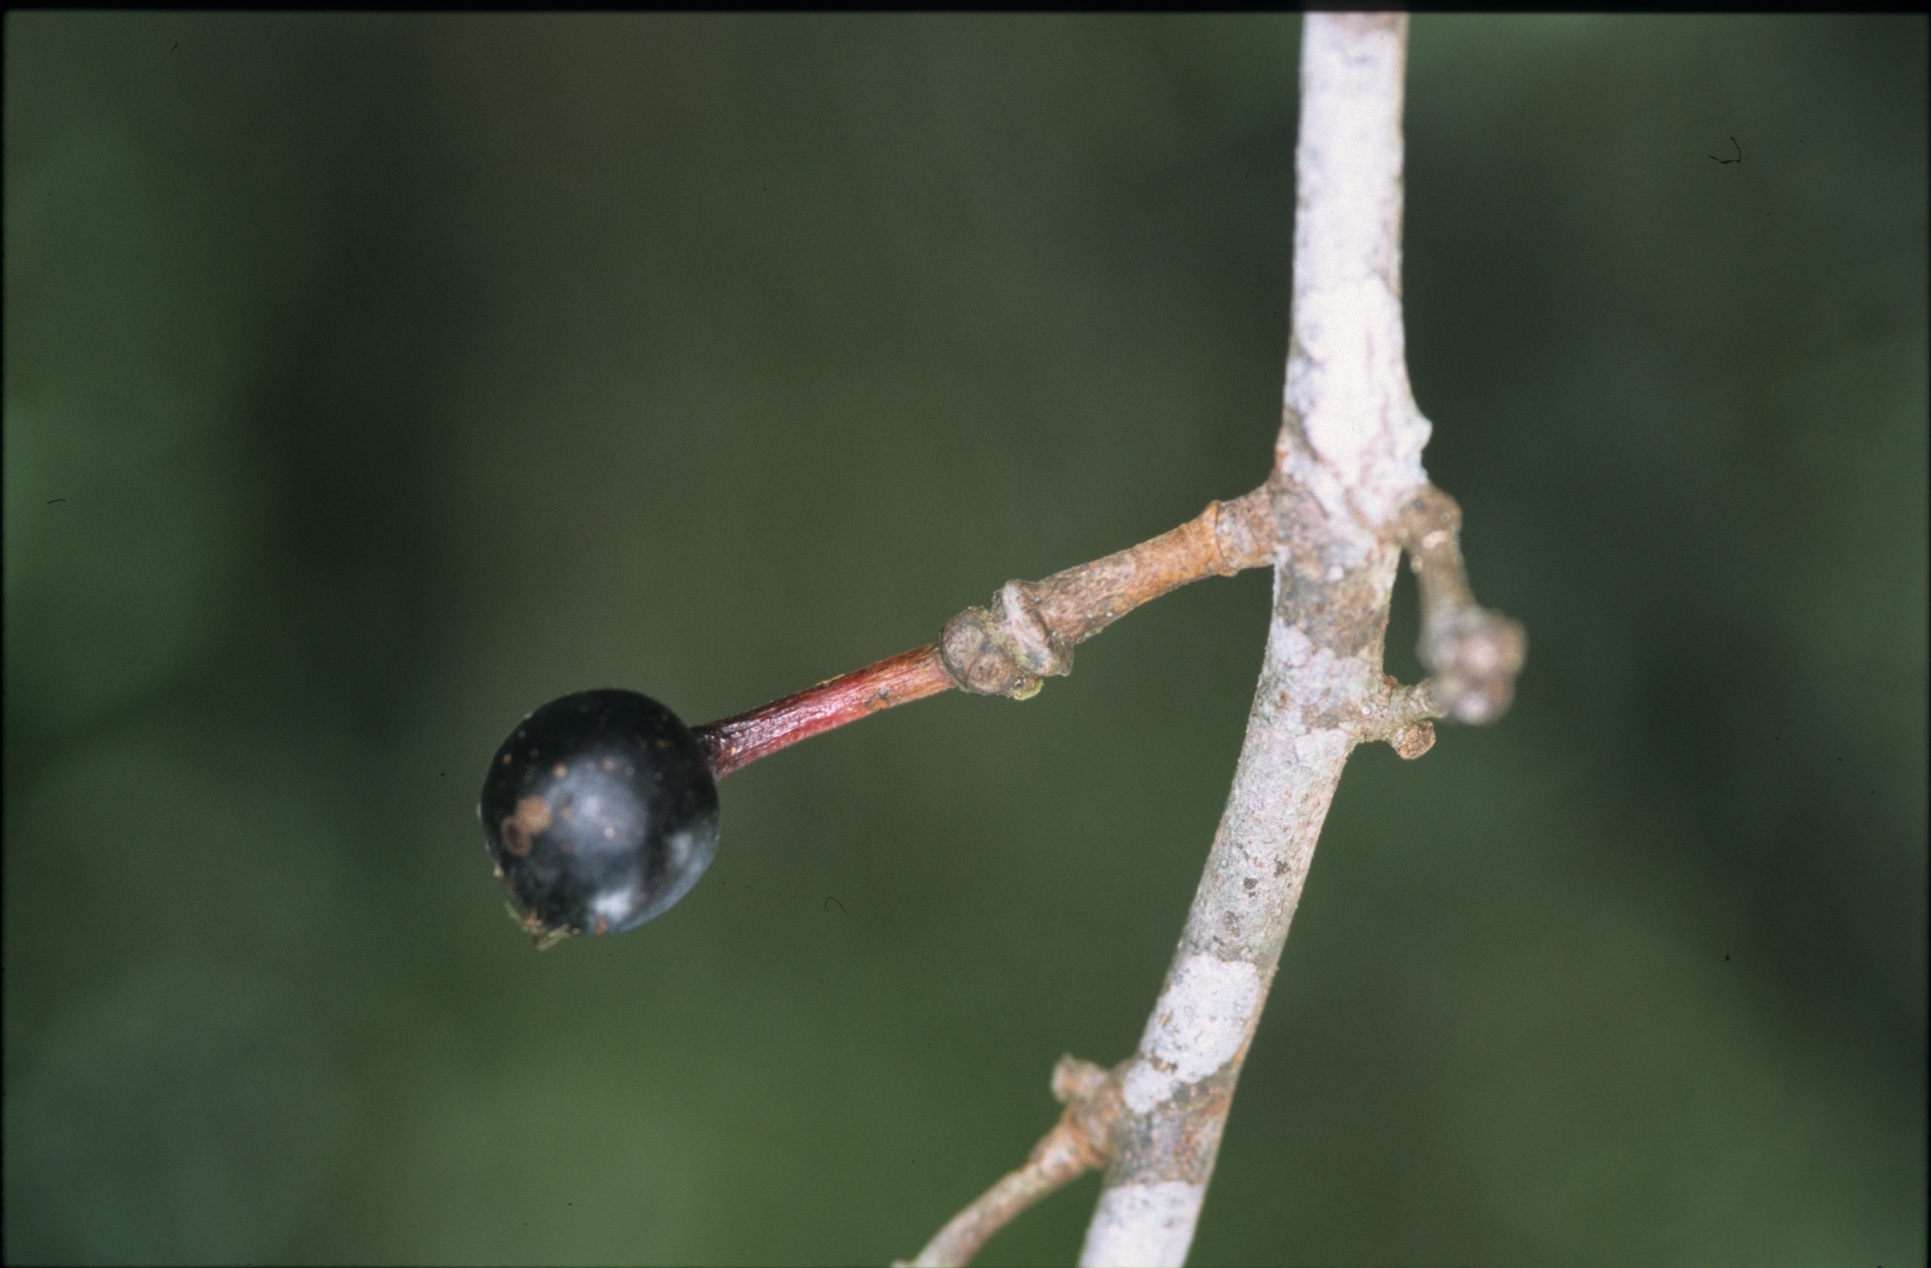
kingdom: Plantae
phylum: Tracheophyta
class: Magnoliopsida
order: Magnoliales
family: Annonaceae
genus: Guatteria
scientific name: Guatteria punctata
